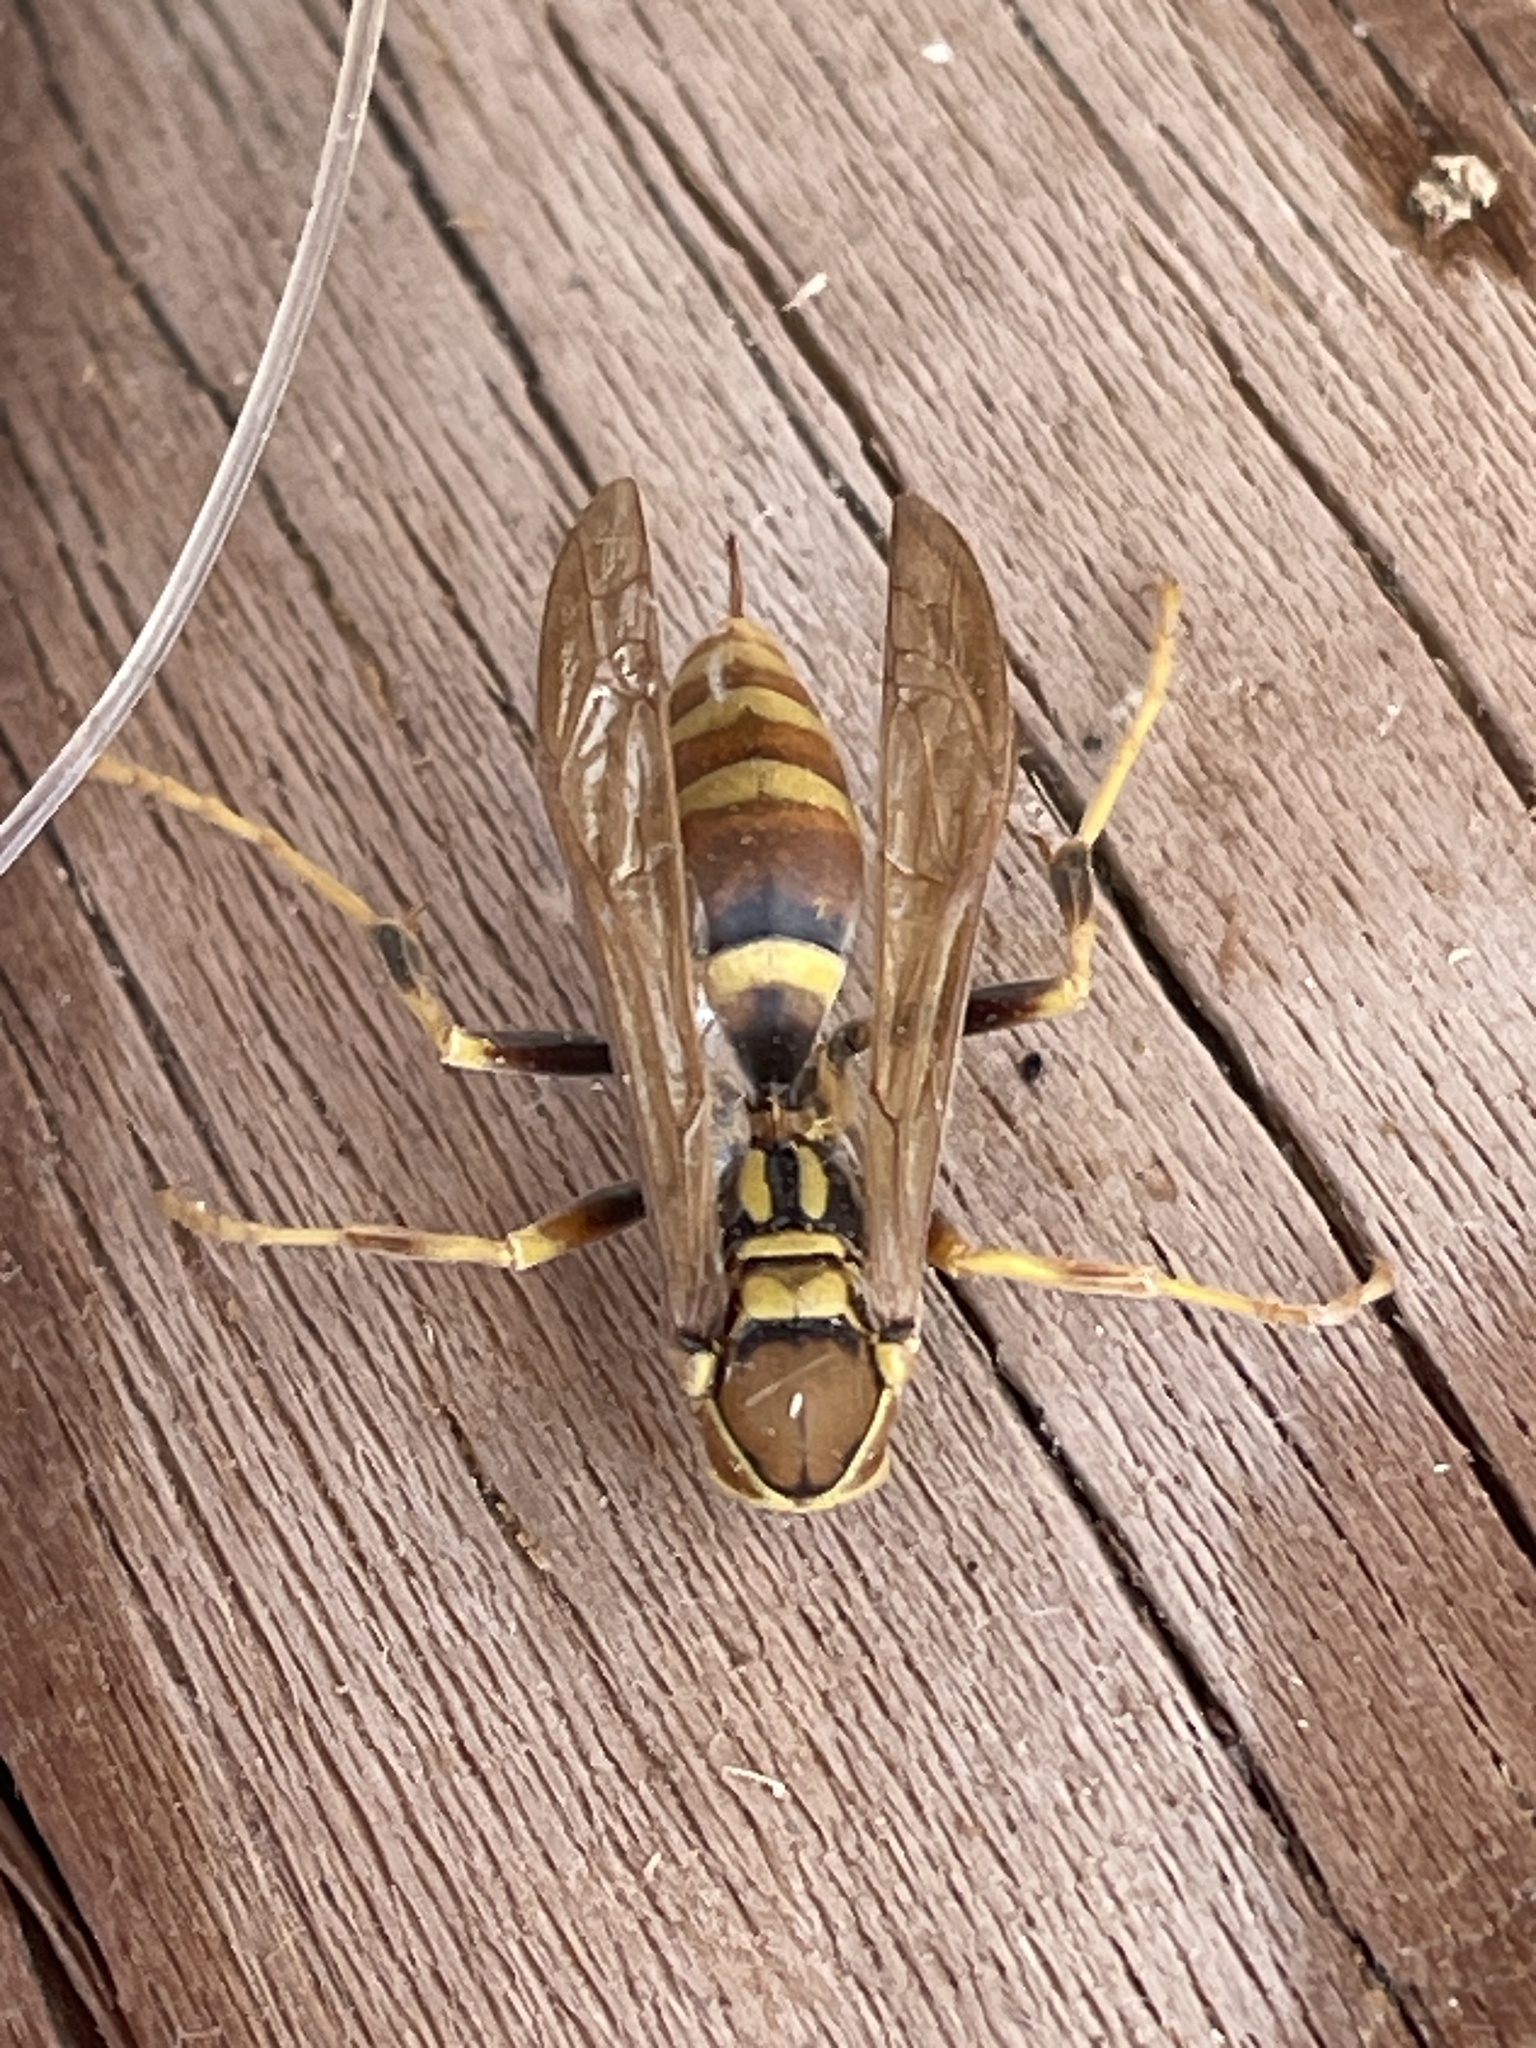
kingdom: Animalia
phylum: Arthropoda
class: Insecta
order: Hymenoptera
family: Eumenidae
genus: Polistes
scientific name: Polistes exclamans
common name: Paper wasp
